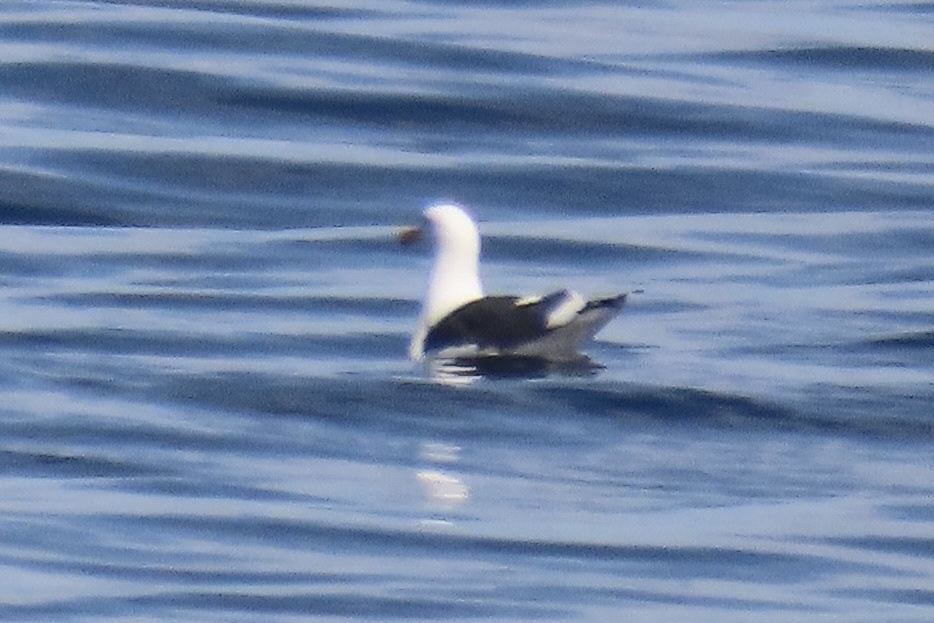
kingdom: Animalia
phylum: Chordata
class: Aves
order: Charadriiformes
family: Laridae
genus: Larus
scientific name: Larus occidentalis
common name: Western gull
